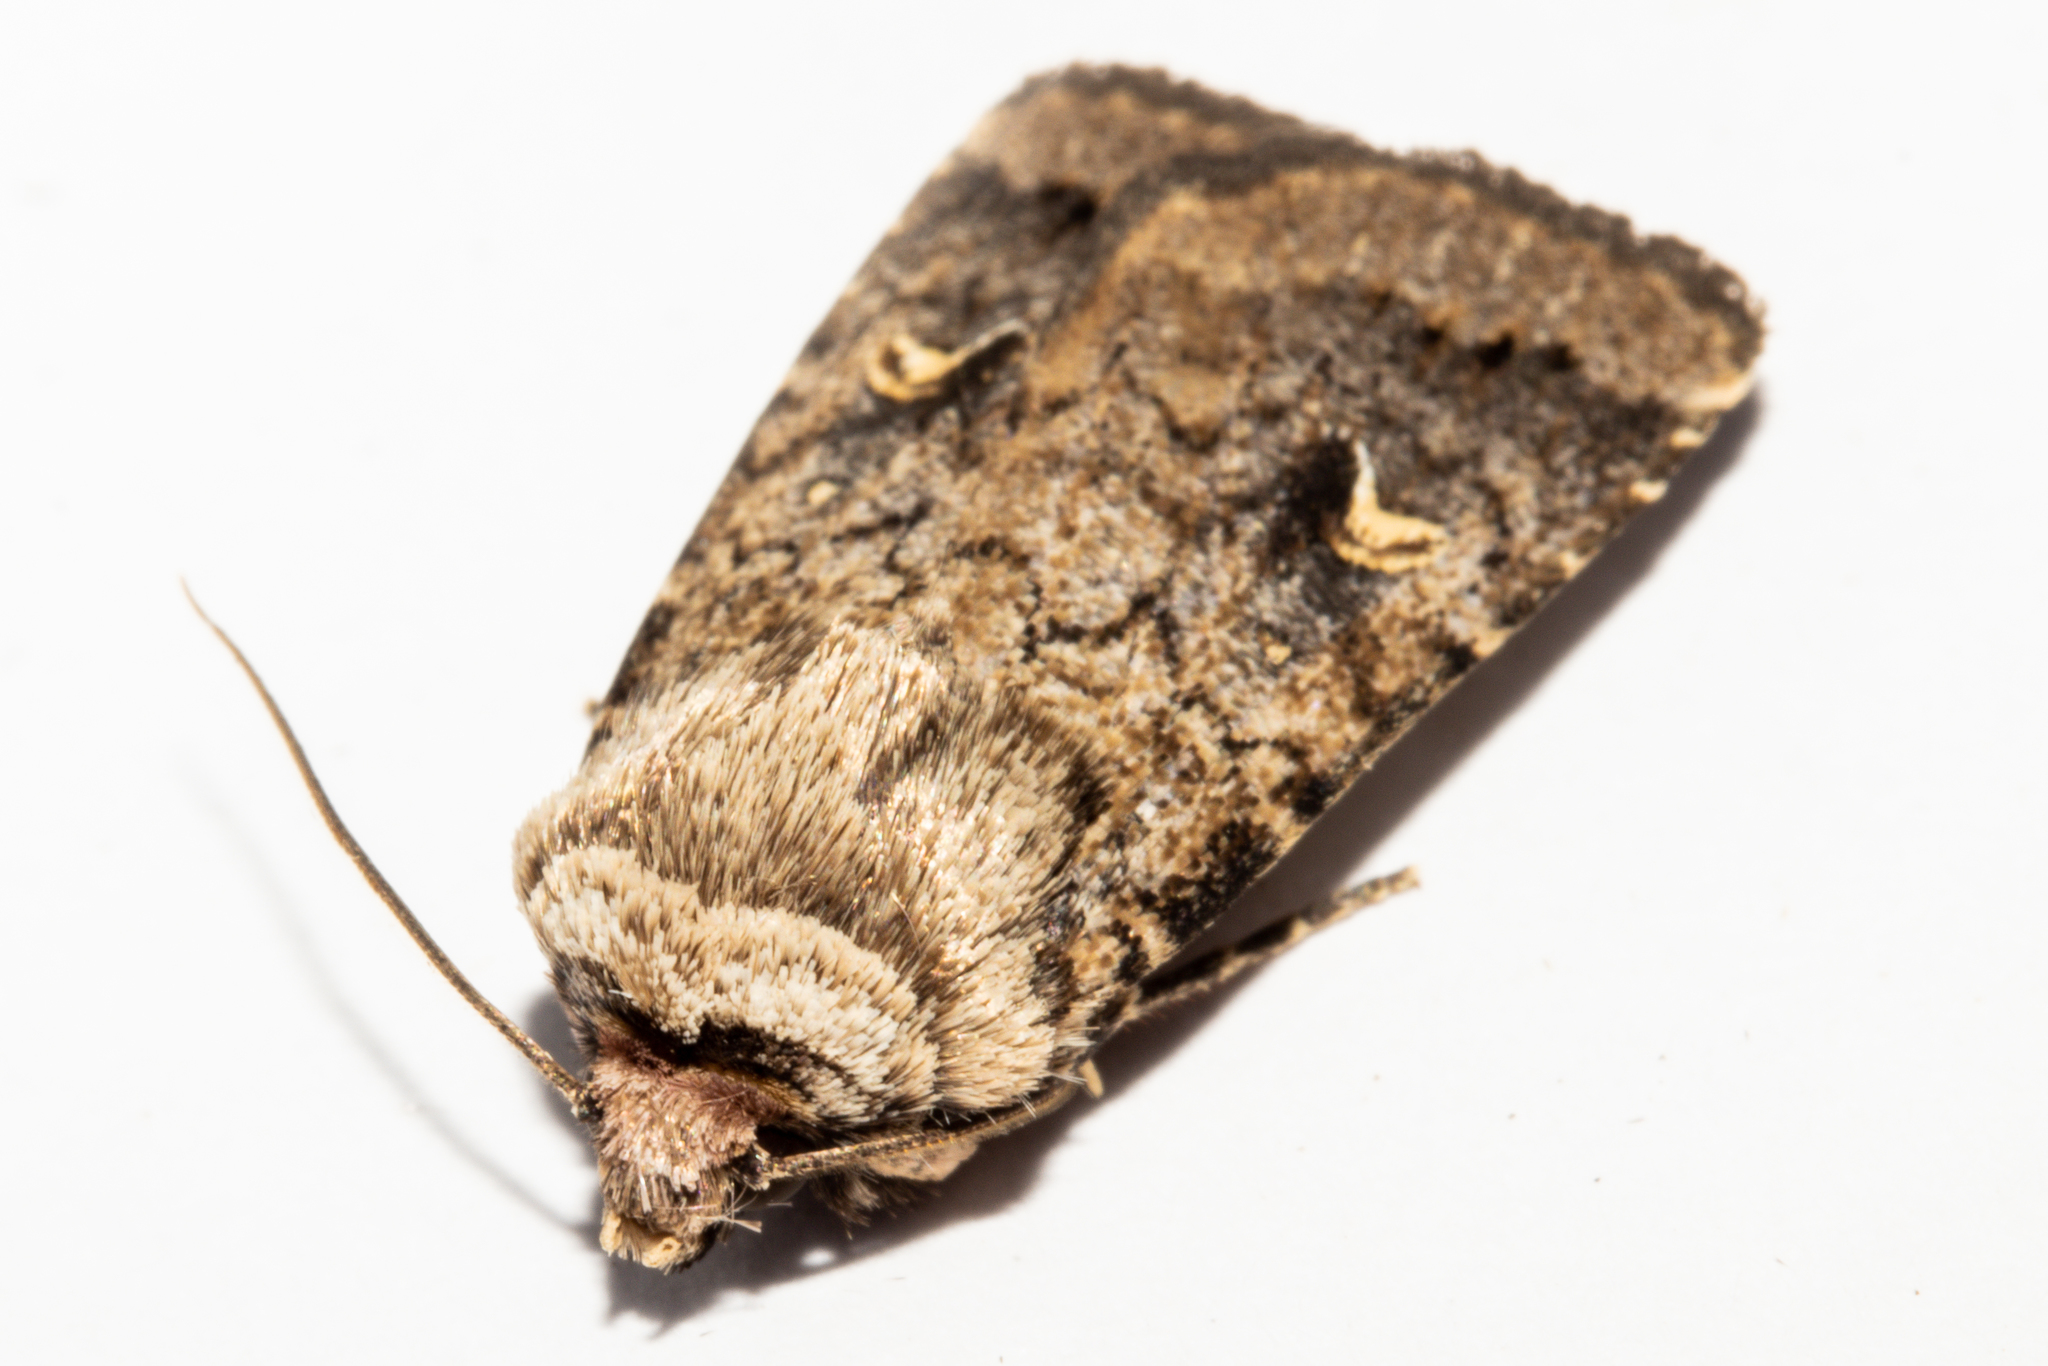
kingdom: Animalia
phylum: Arthropoda
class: Insecta
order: Lepidoptera
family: Noctuidae
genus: Proteuxoa
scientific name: Proteuxoa tetronycha
